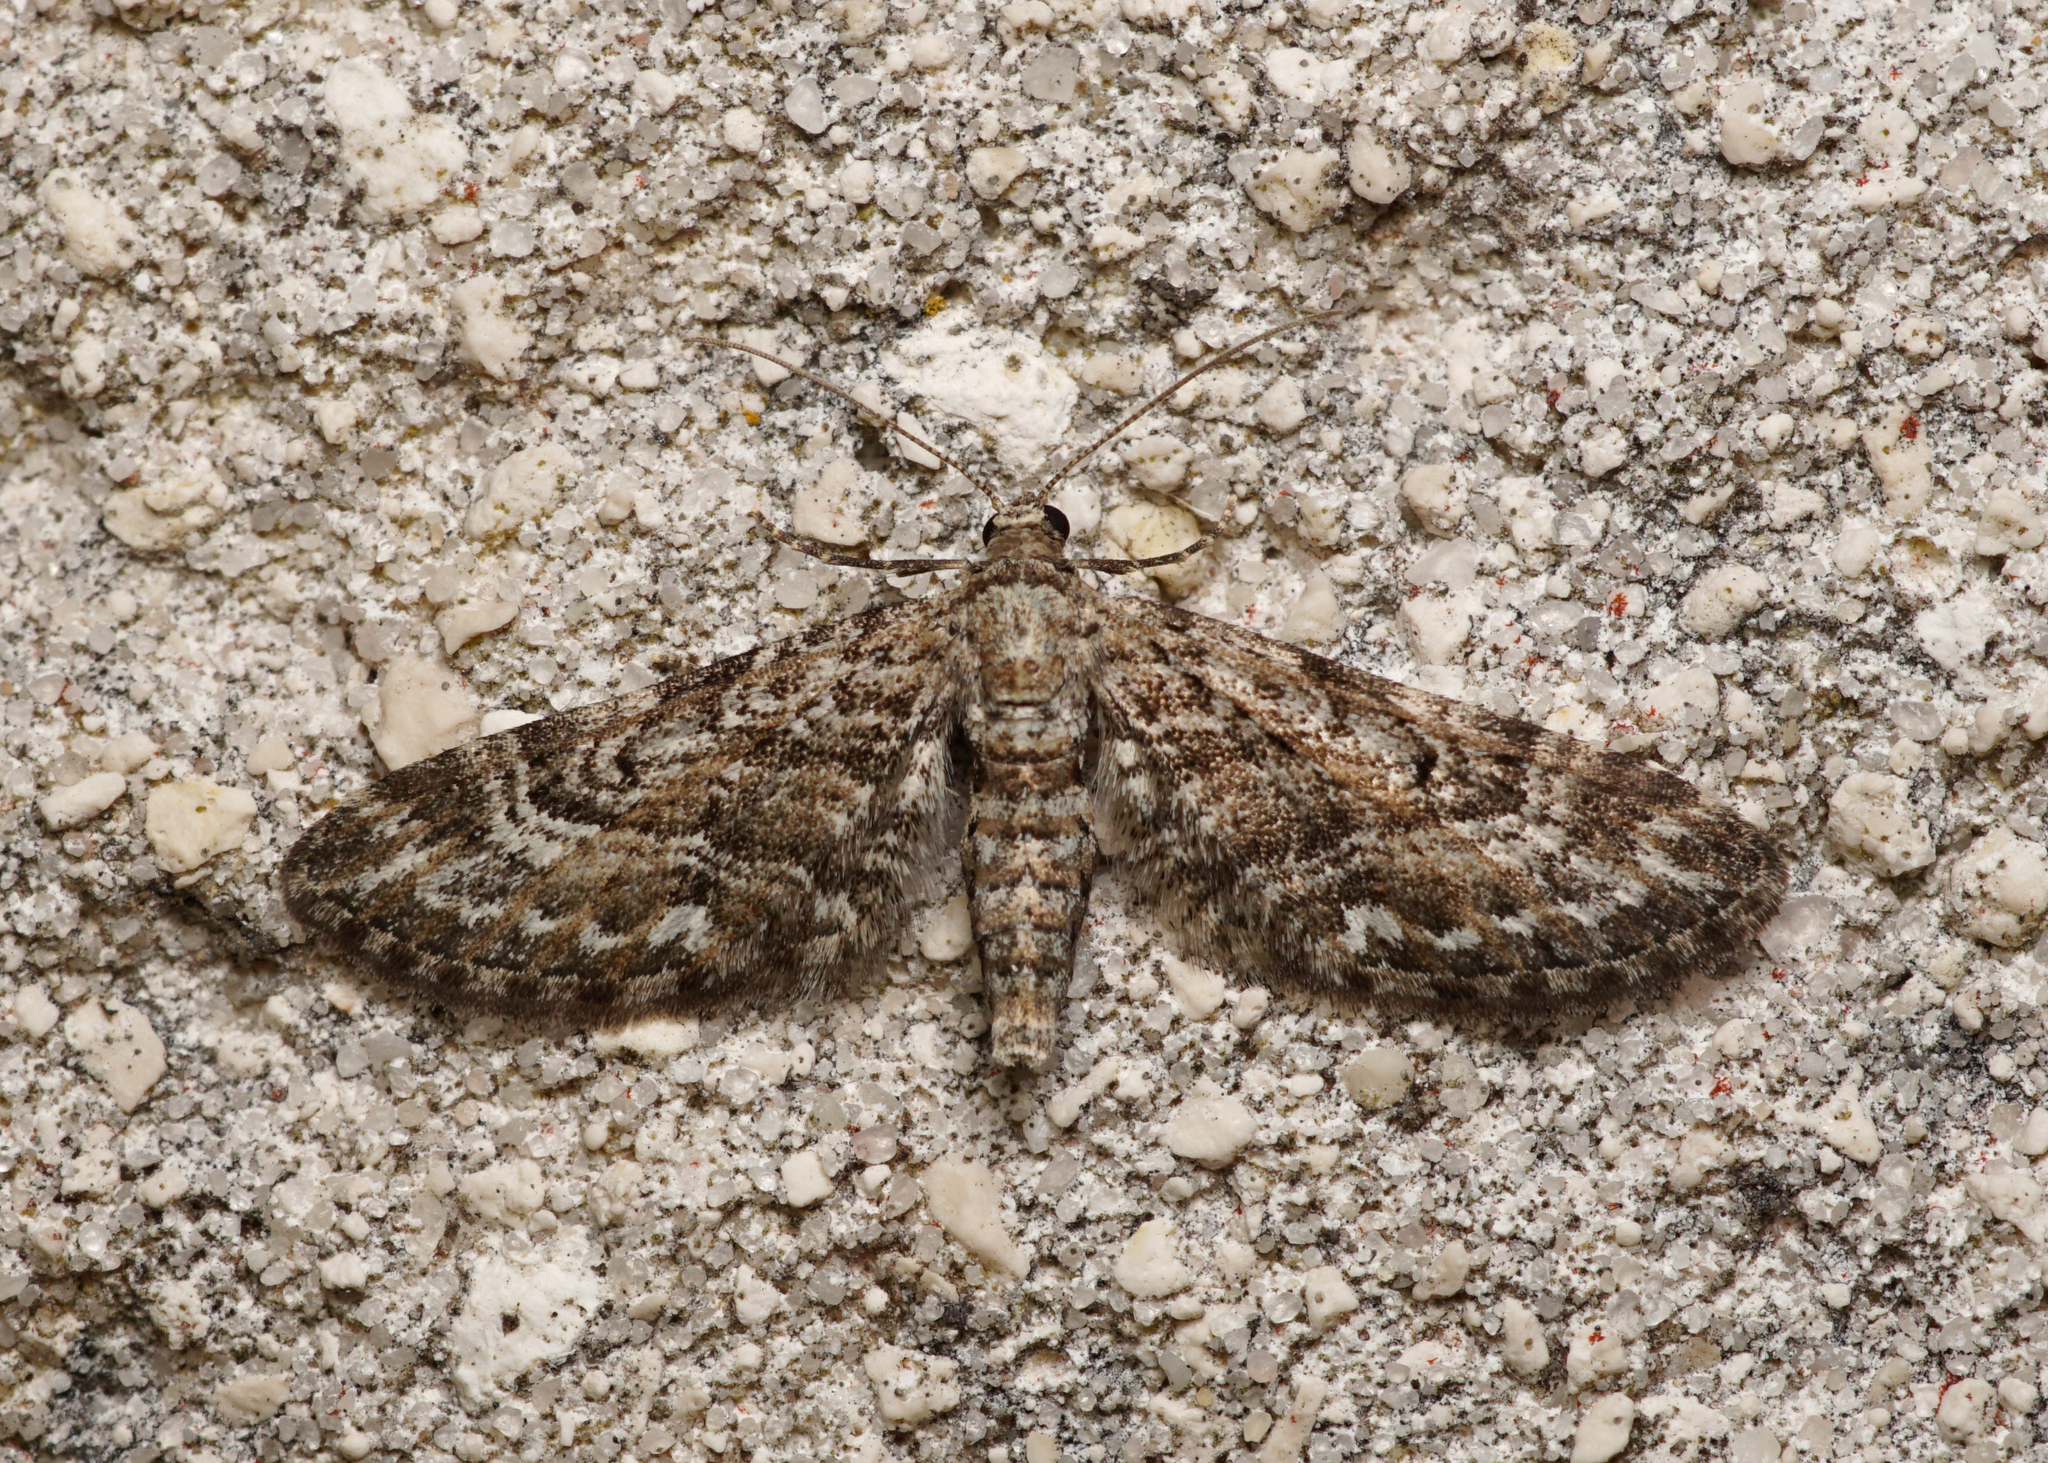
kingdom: Animalia
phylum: Arthropoda
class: Insecta
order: Lepidoptera
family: Geometridae
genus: Eupithecia
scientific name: Eupithecia nanata
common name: Narrow-winged pug
